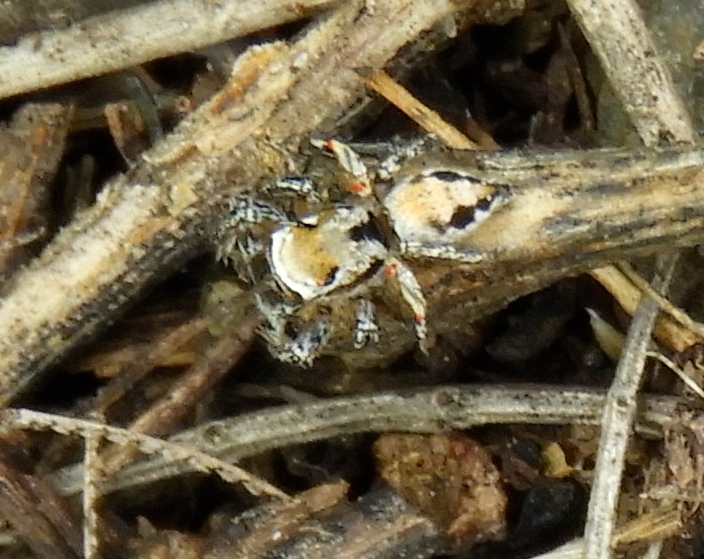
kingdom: Animalia
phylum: Arthropoda
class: Arachnida
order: Araneae
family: Salticidae
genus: Habronattus
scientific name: Habronattus aztecanus
